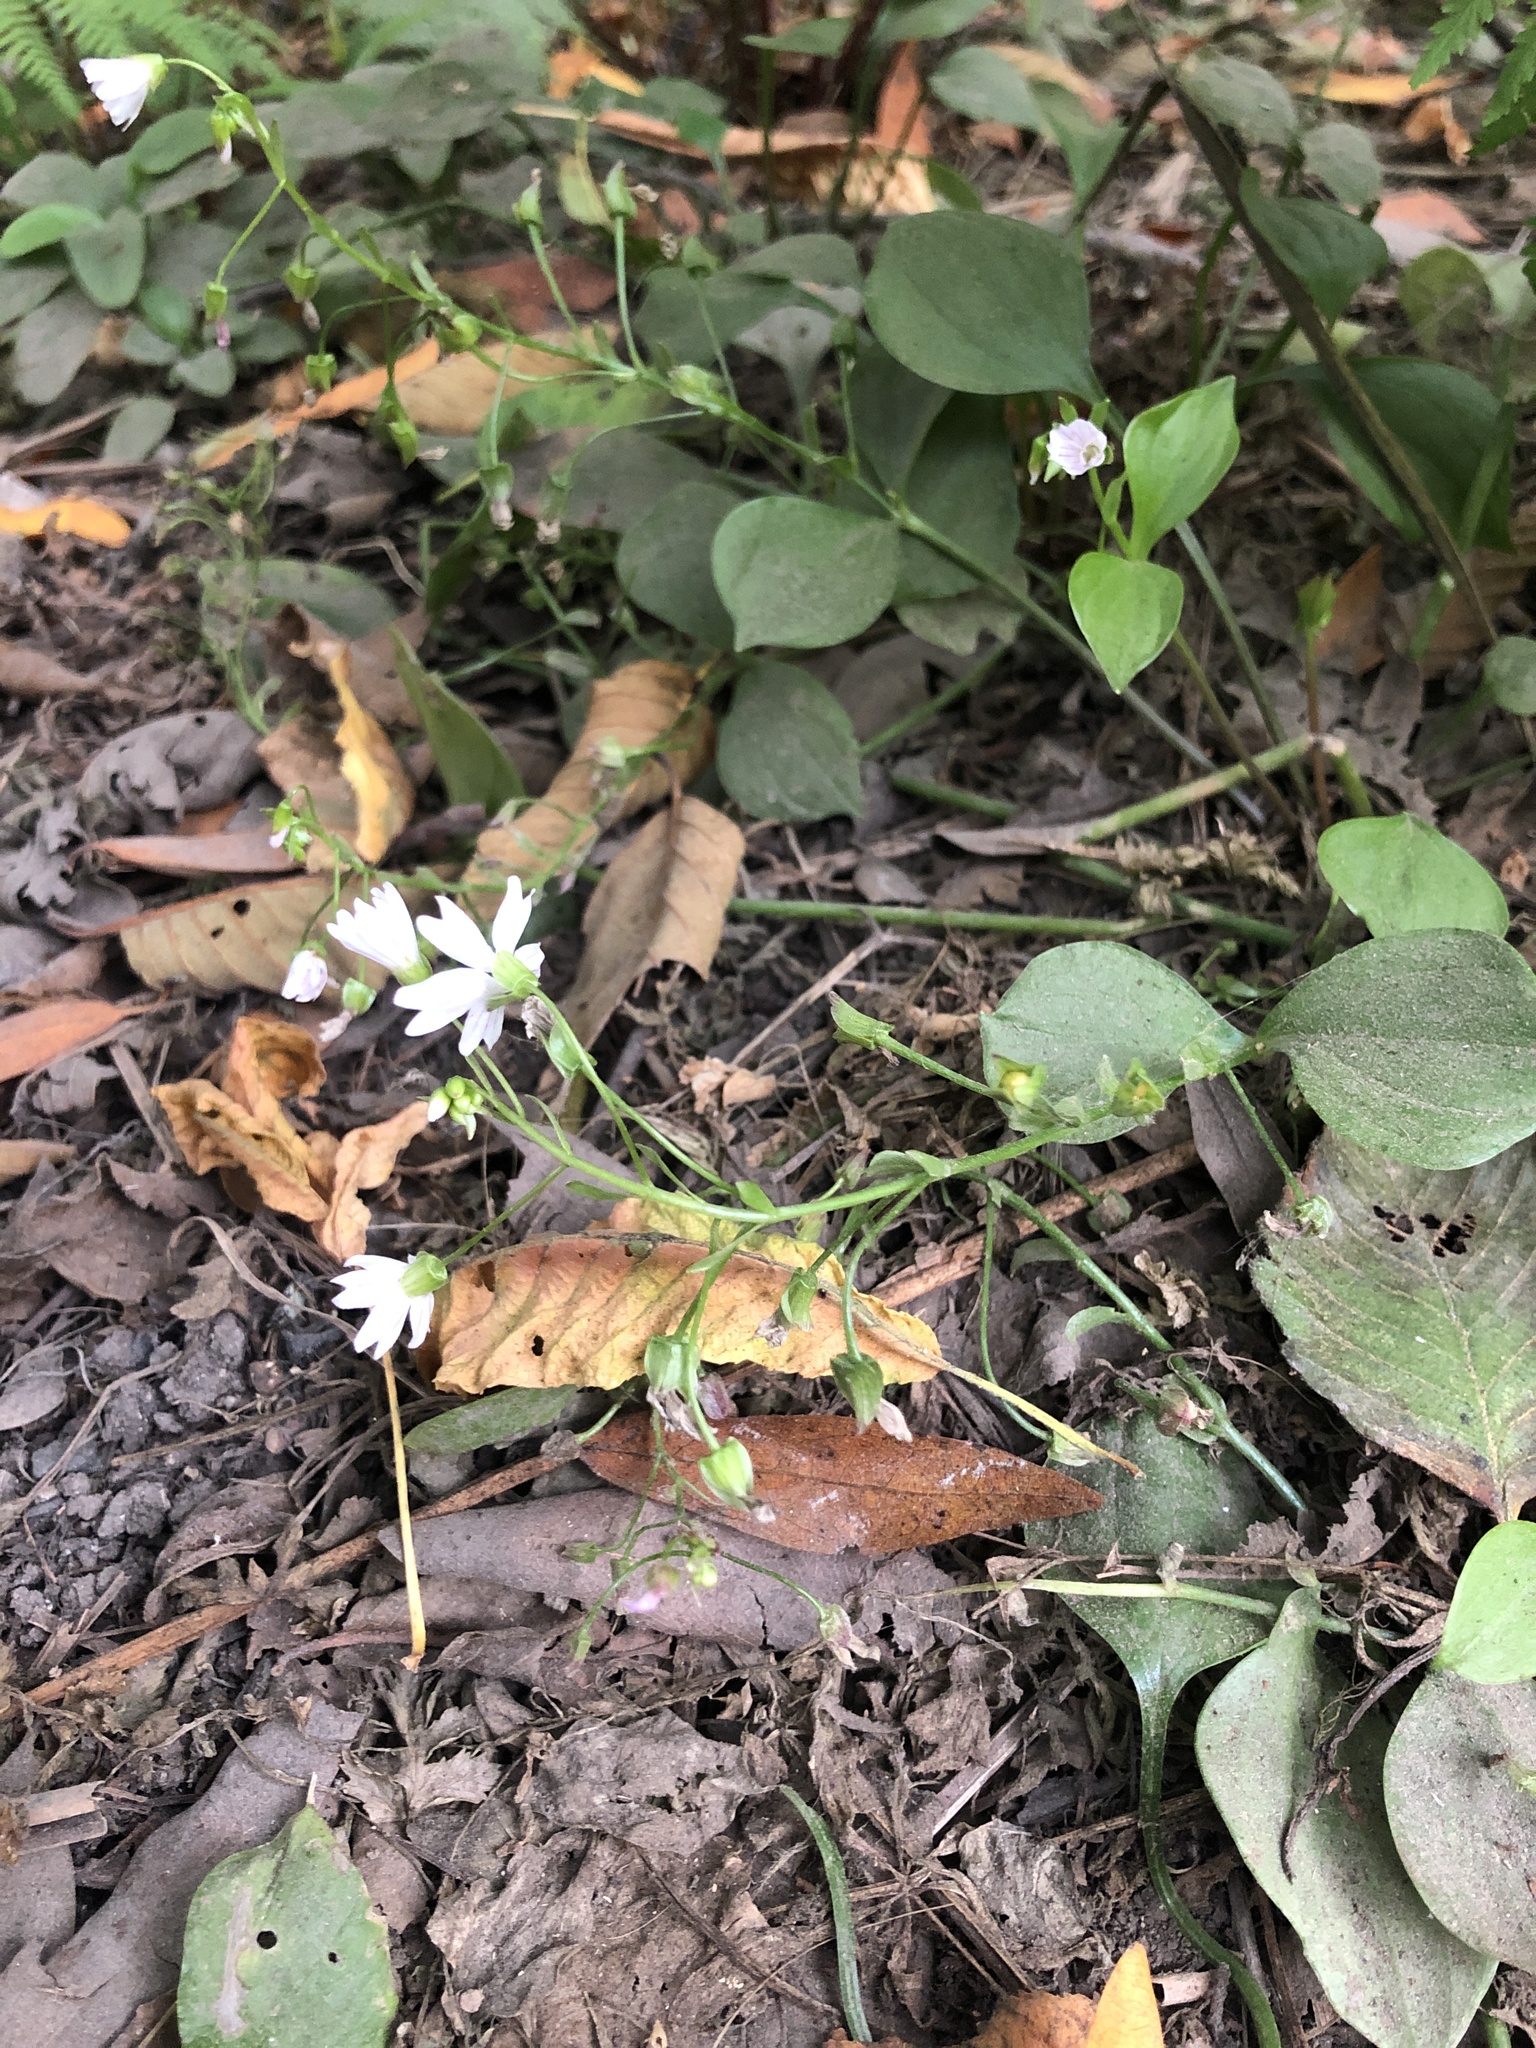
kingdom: Plantae
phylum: Tracheophyta
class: Magnoliopsida
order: Caryophyllales
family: Montiaceae
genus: Claytonia
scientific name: Claytonia sibirica
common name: Pink purslane
